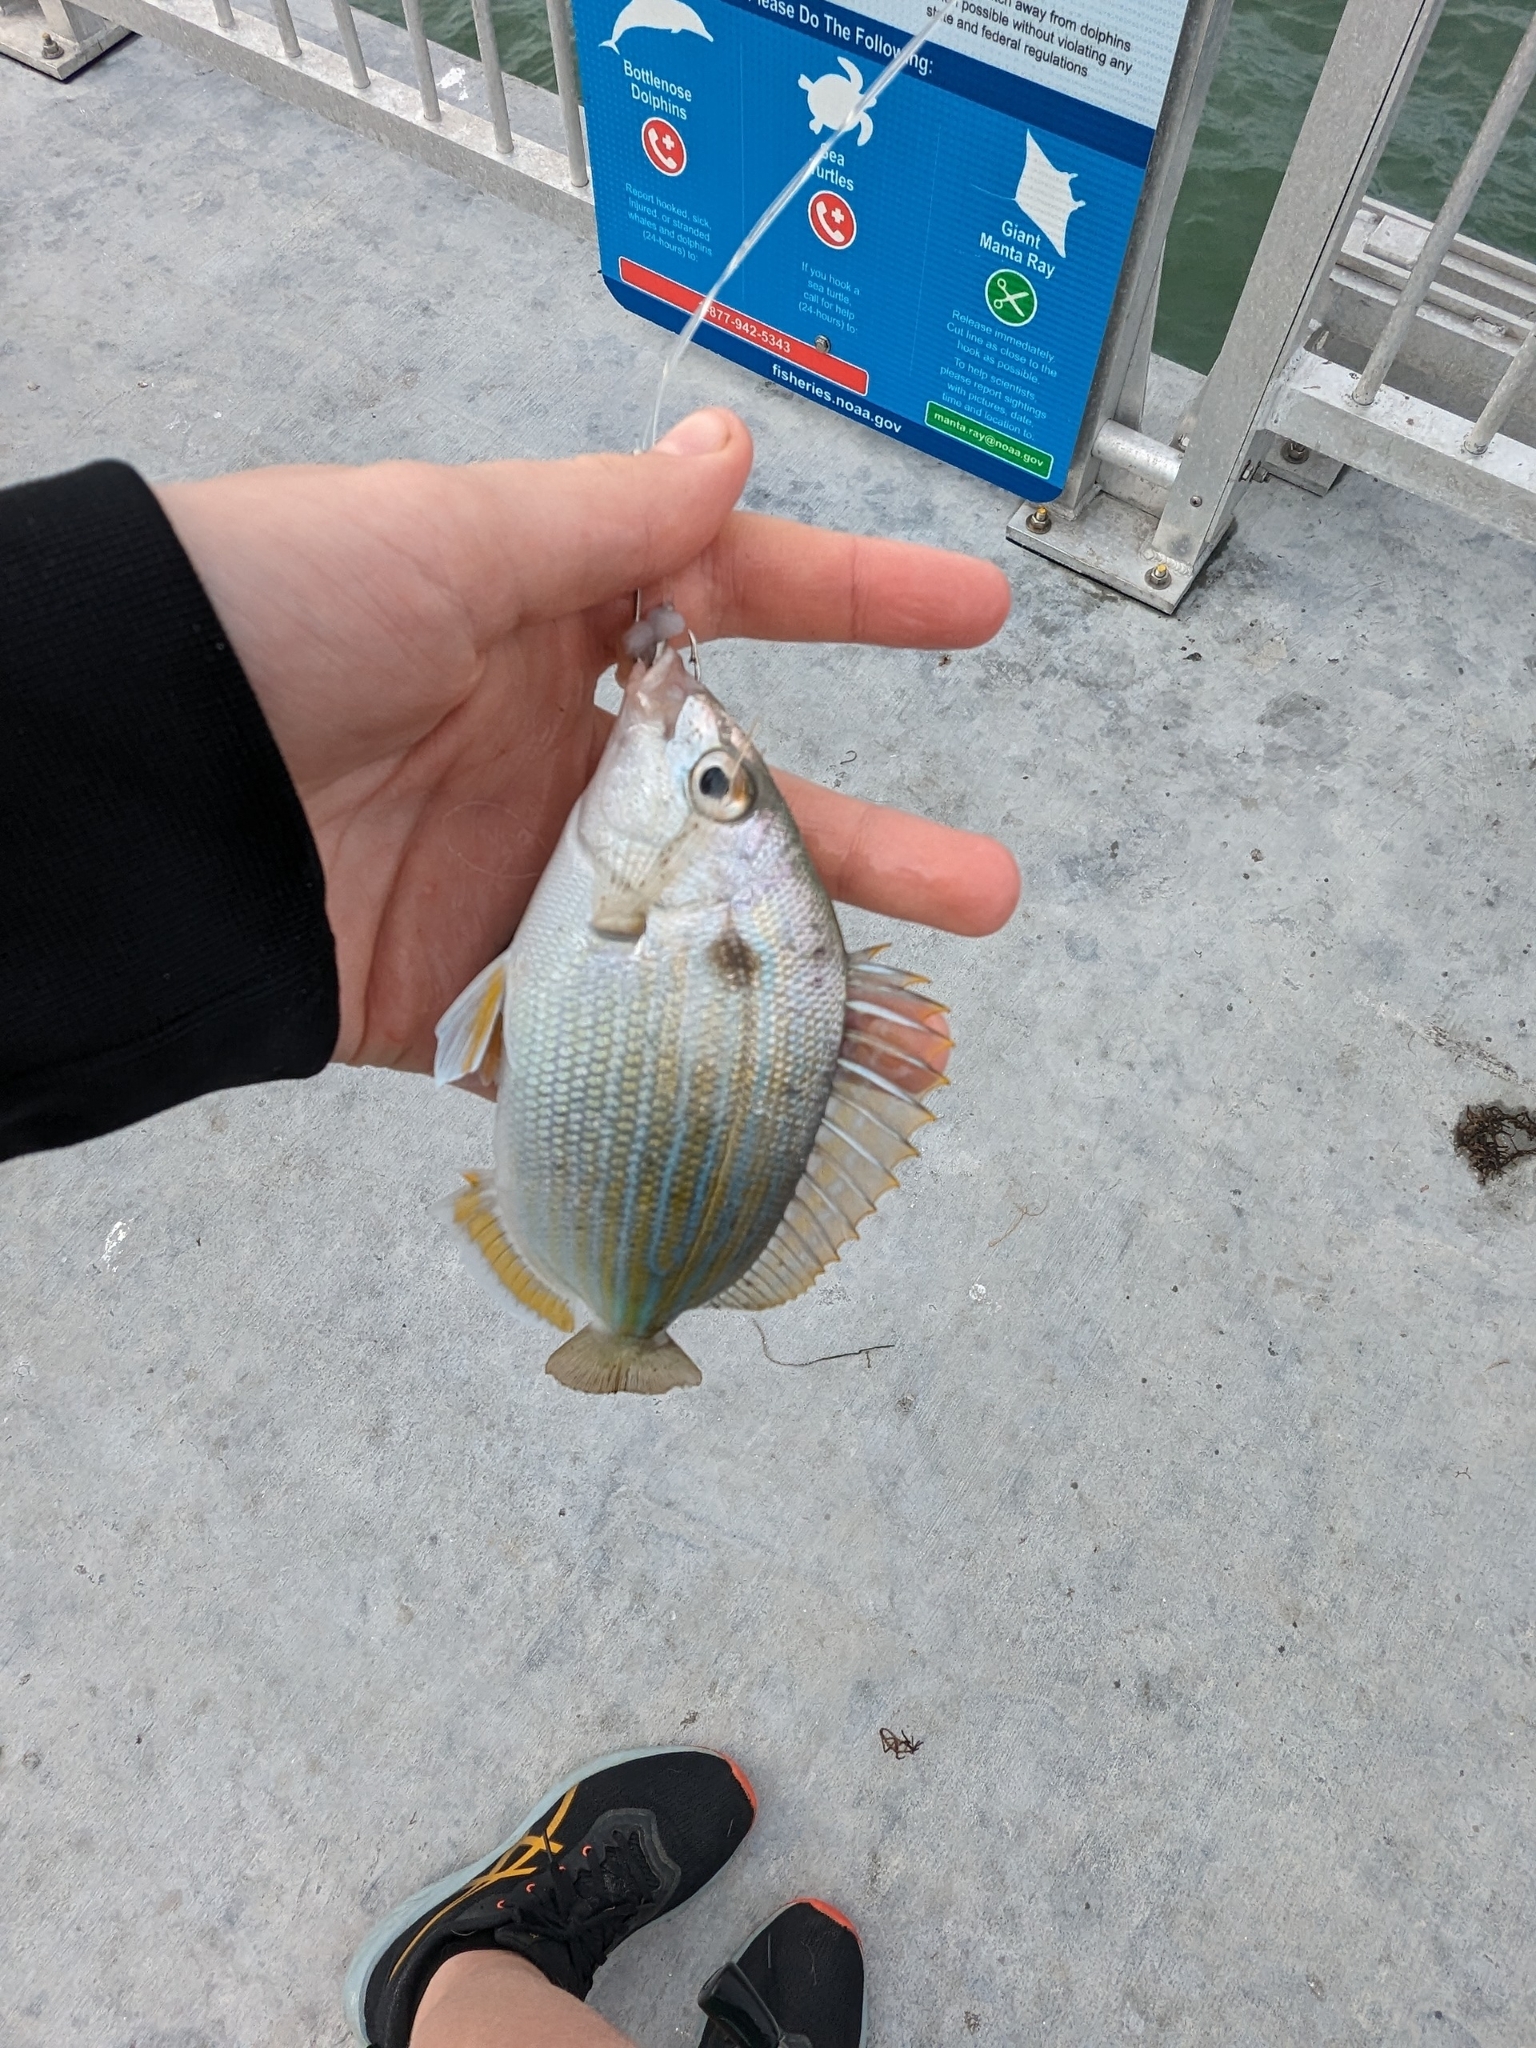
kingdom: Animalia
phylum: Chordata
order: Perciformes
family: Sparidae
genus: Lagodon
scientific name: Lagodon rhomboides
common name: Pinfish
